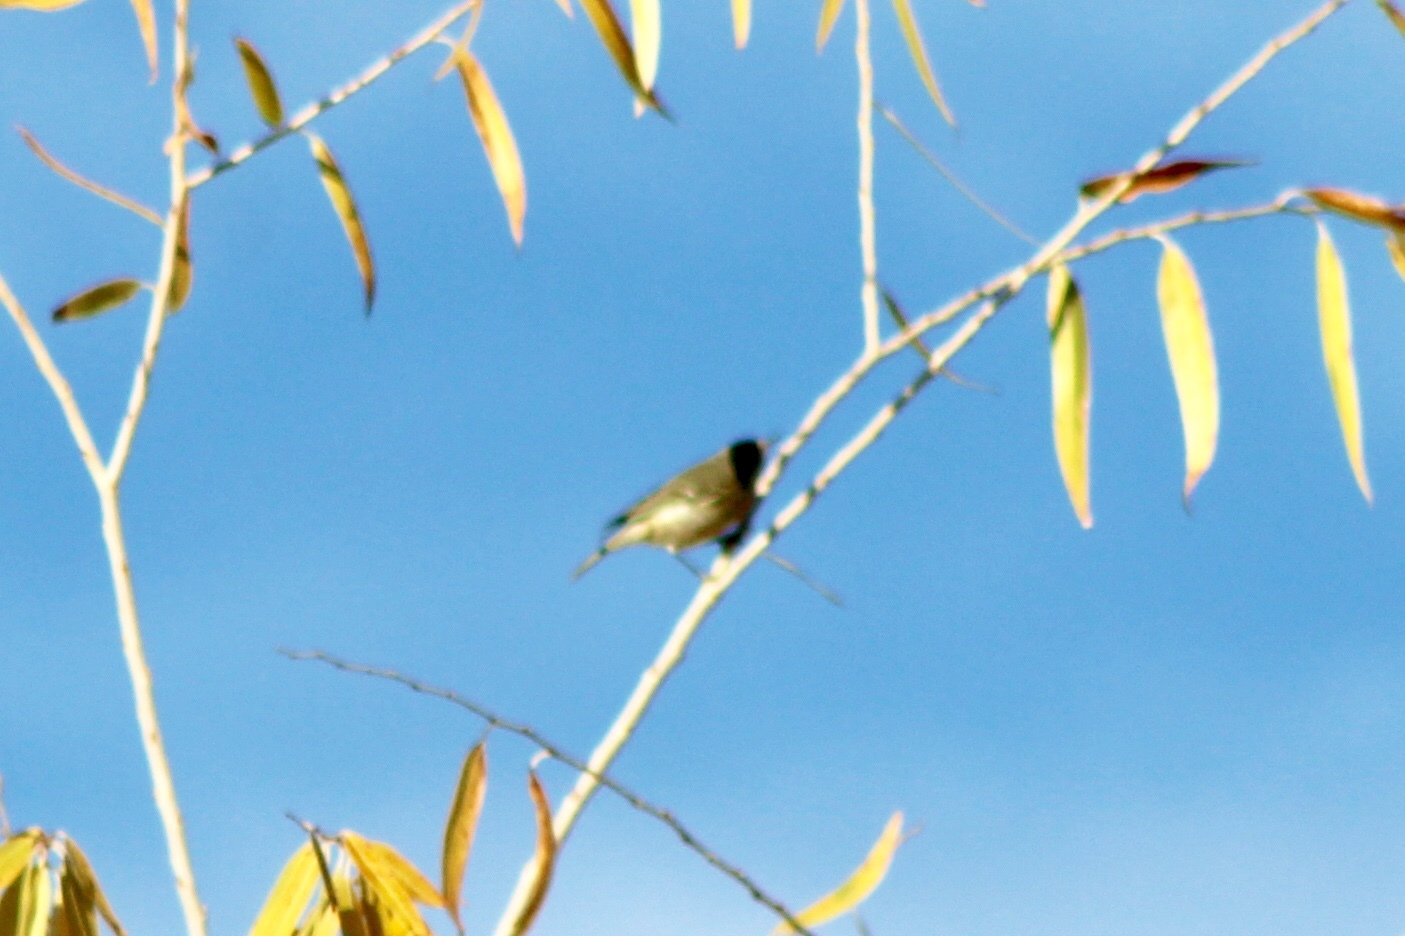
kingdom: Animalia
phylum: Chordata
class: Aves
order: Passeriformes
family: Regulidae
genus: Regulus
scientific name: Regulus calendula
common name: Ruby-crowned kinglet
